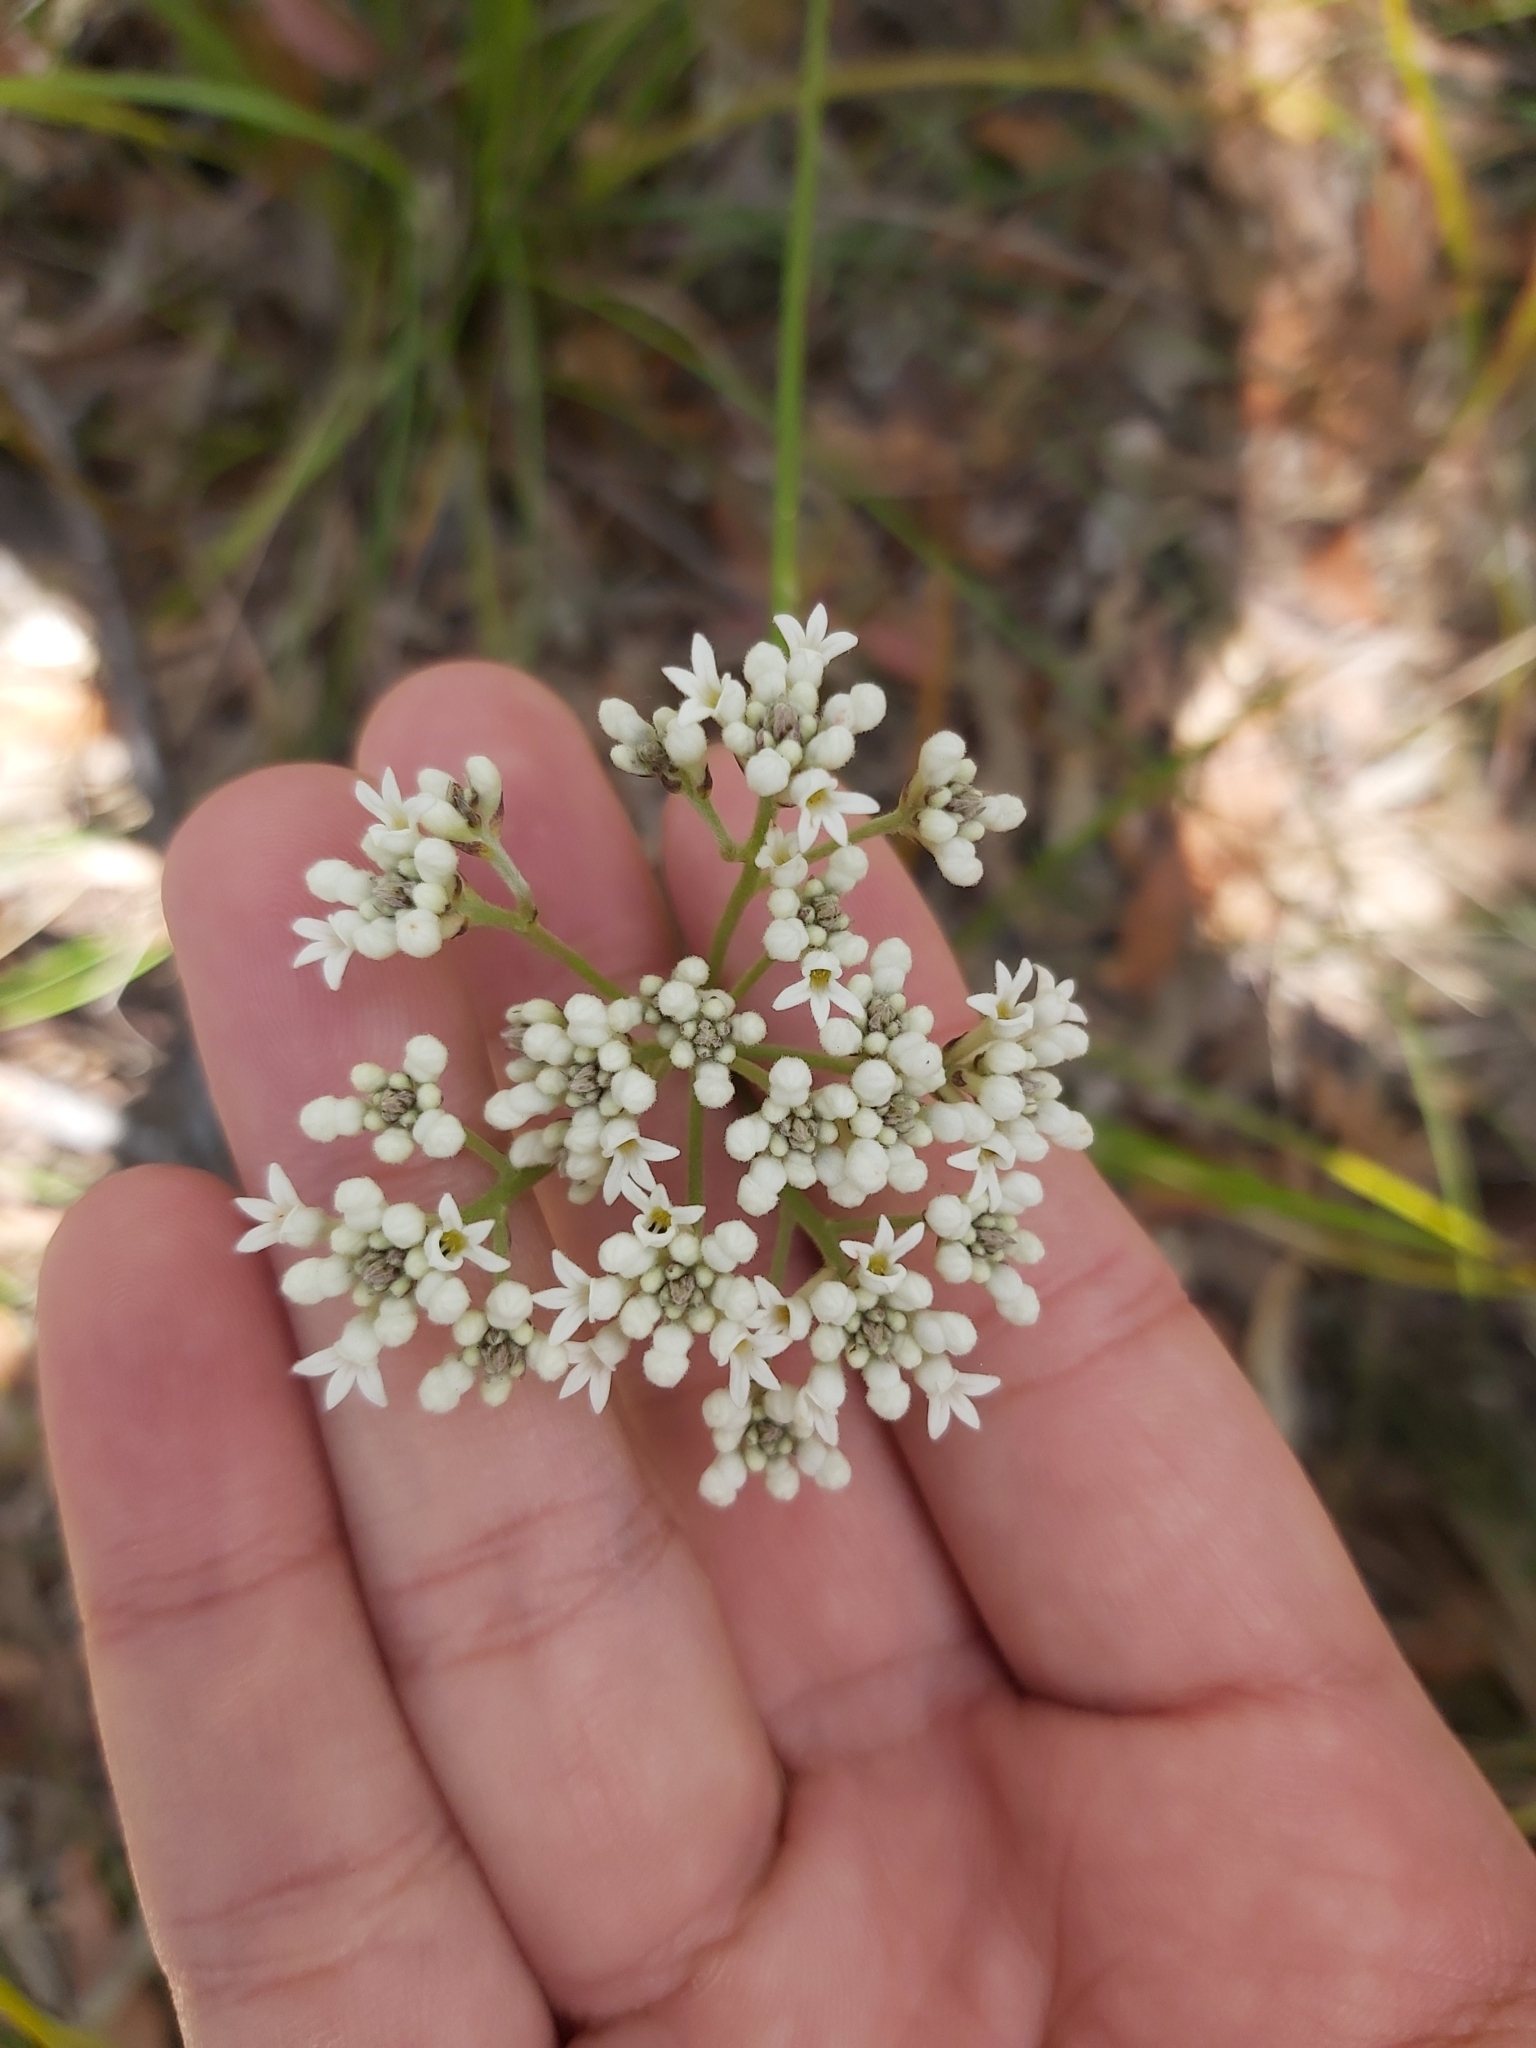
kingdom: Plantae
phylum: Tracheophyta
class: Magnoliopsida
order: Proteales
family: Proteaceae
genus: Conospermum
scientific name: Conospermum longifolium
